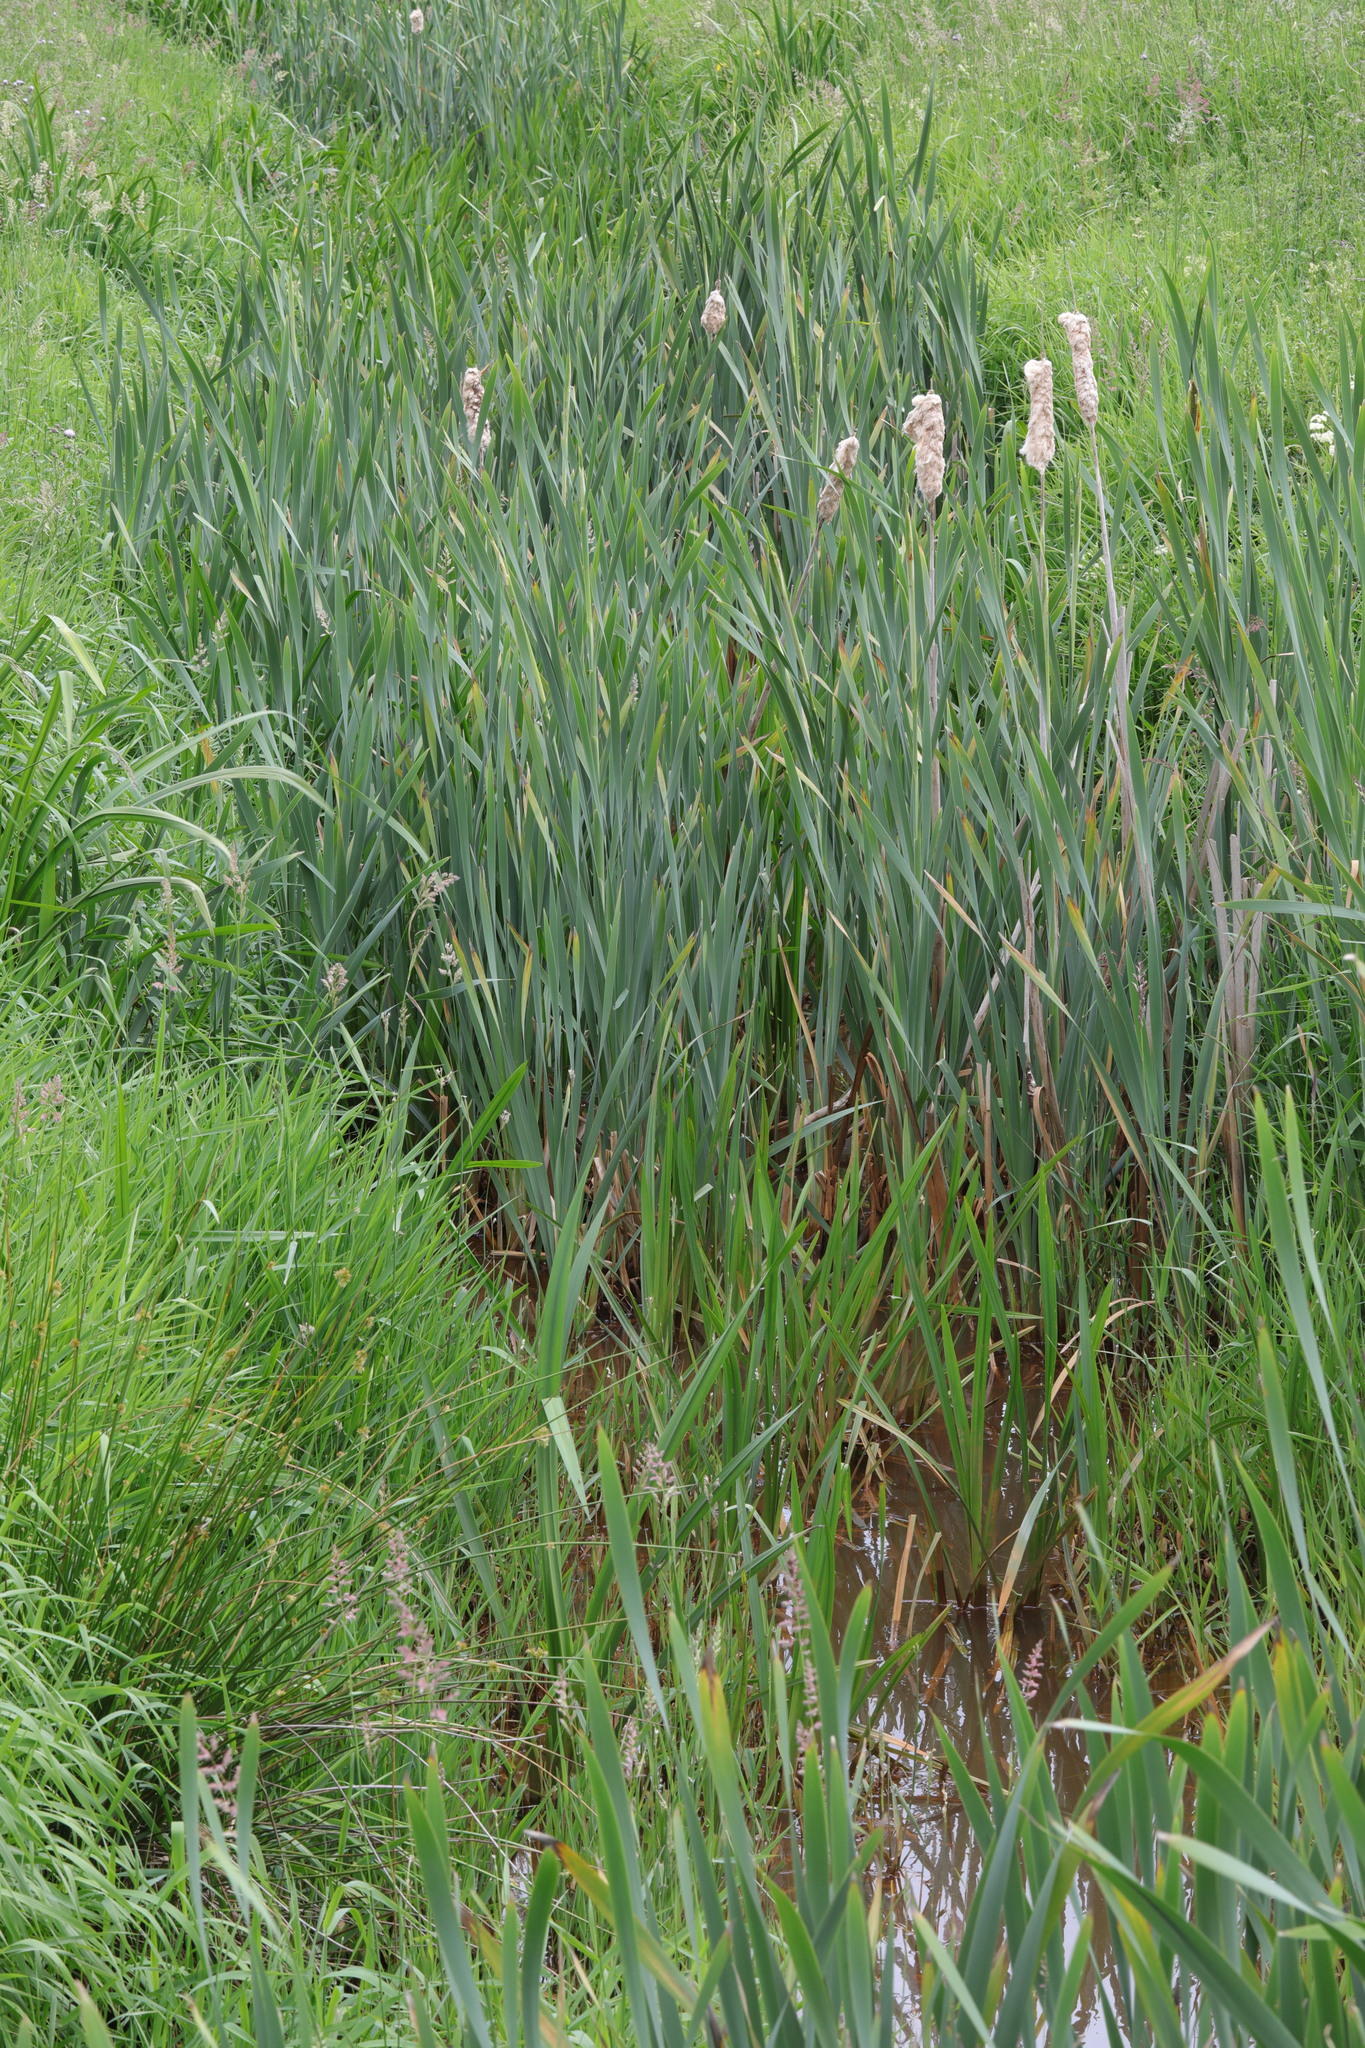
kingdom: Plantae
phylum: Tracheophyta
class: Liliopsida
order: Poales
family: Typhaceae
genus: Typha
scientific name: Typha latifolia
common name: Broadleaf cattail
